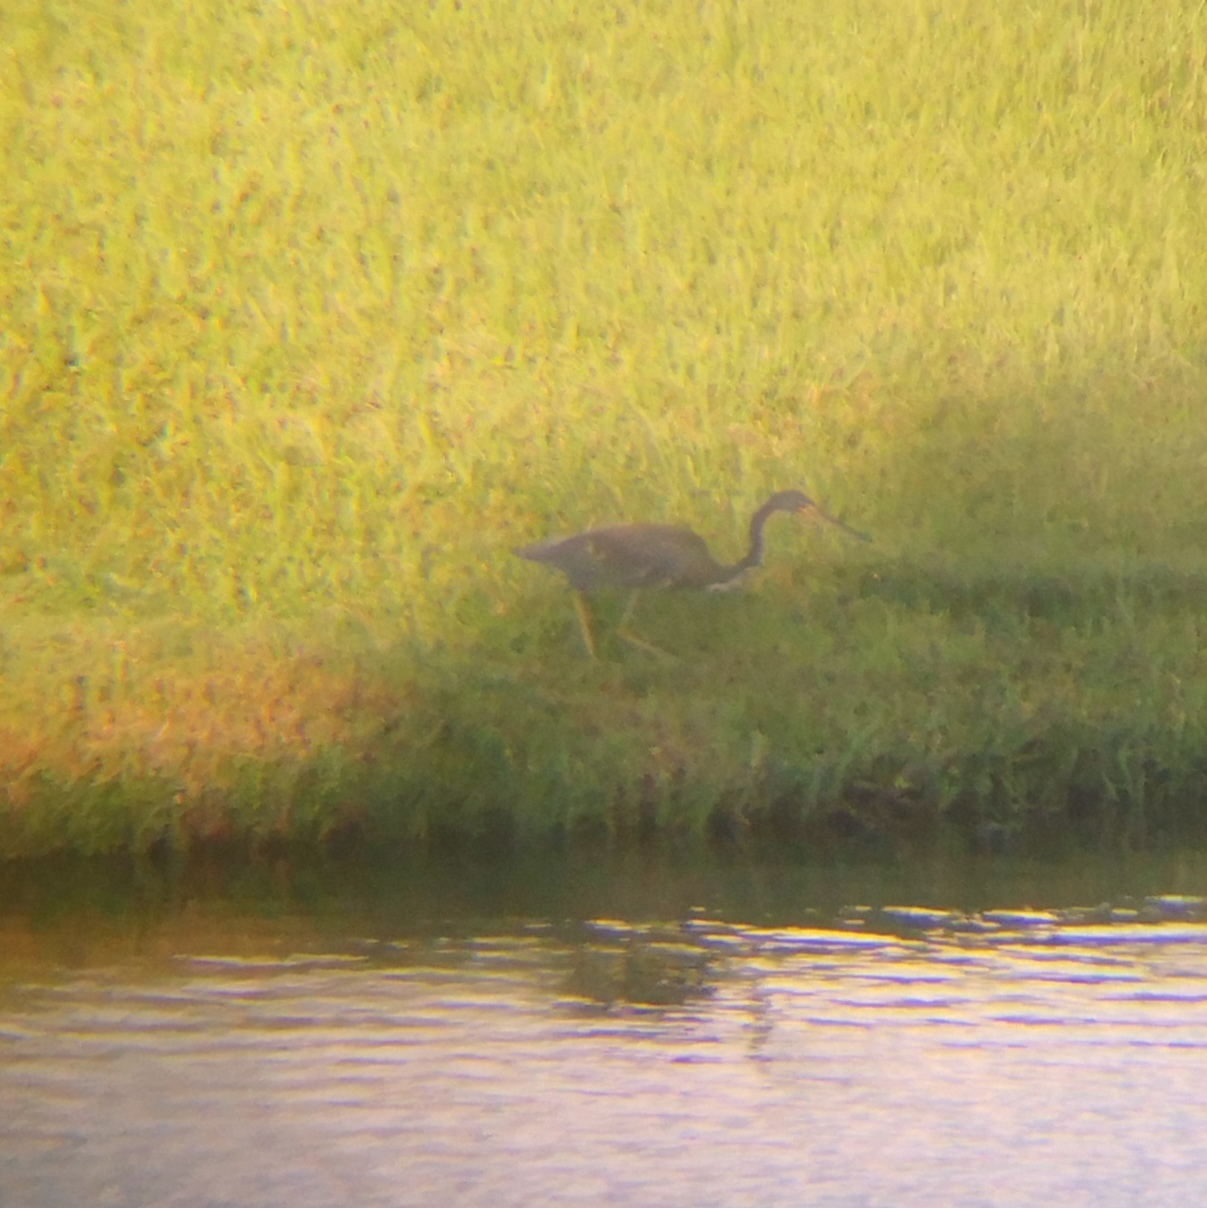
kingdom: Animalia
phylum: Chordata
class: Aves
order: Pelecaniformes
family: Ardeidae
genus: Egretta
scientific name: Egretta tricolor
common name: Tricolored heron
